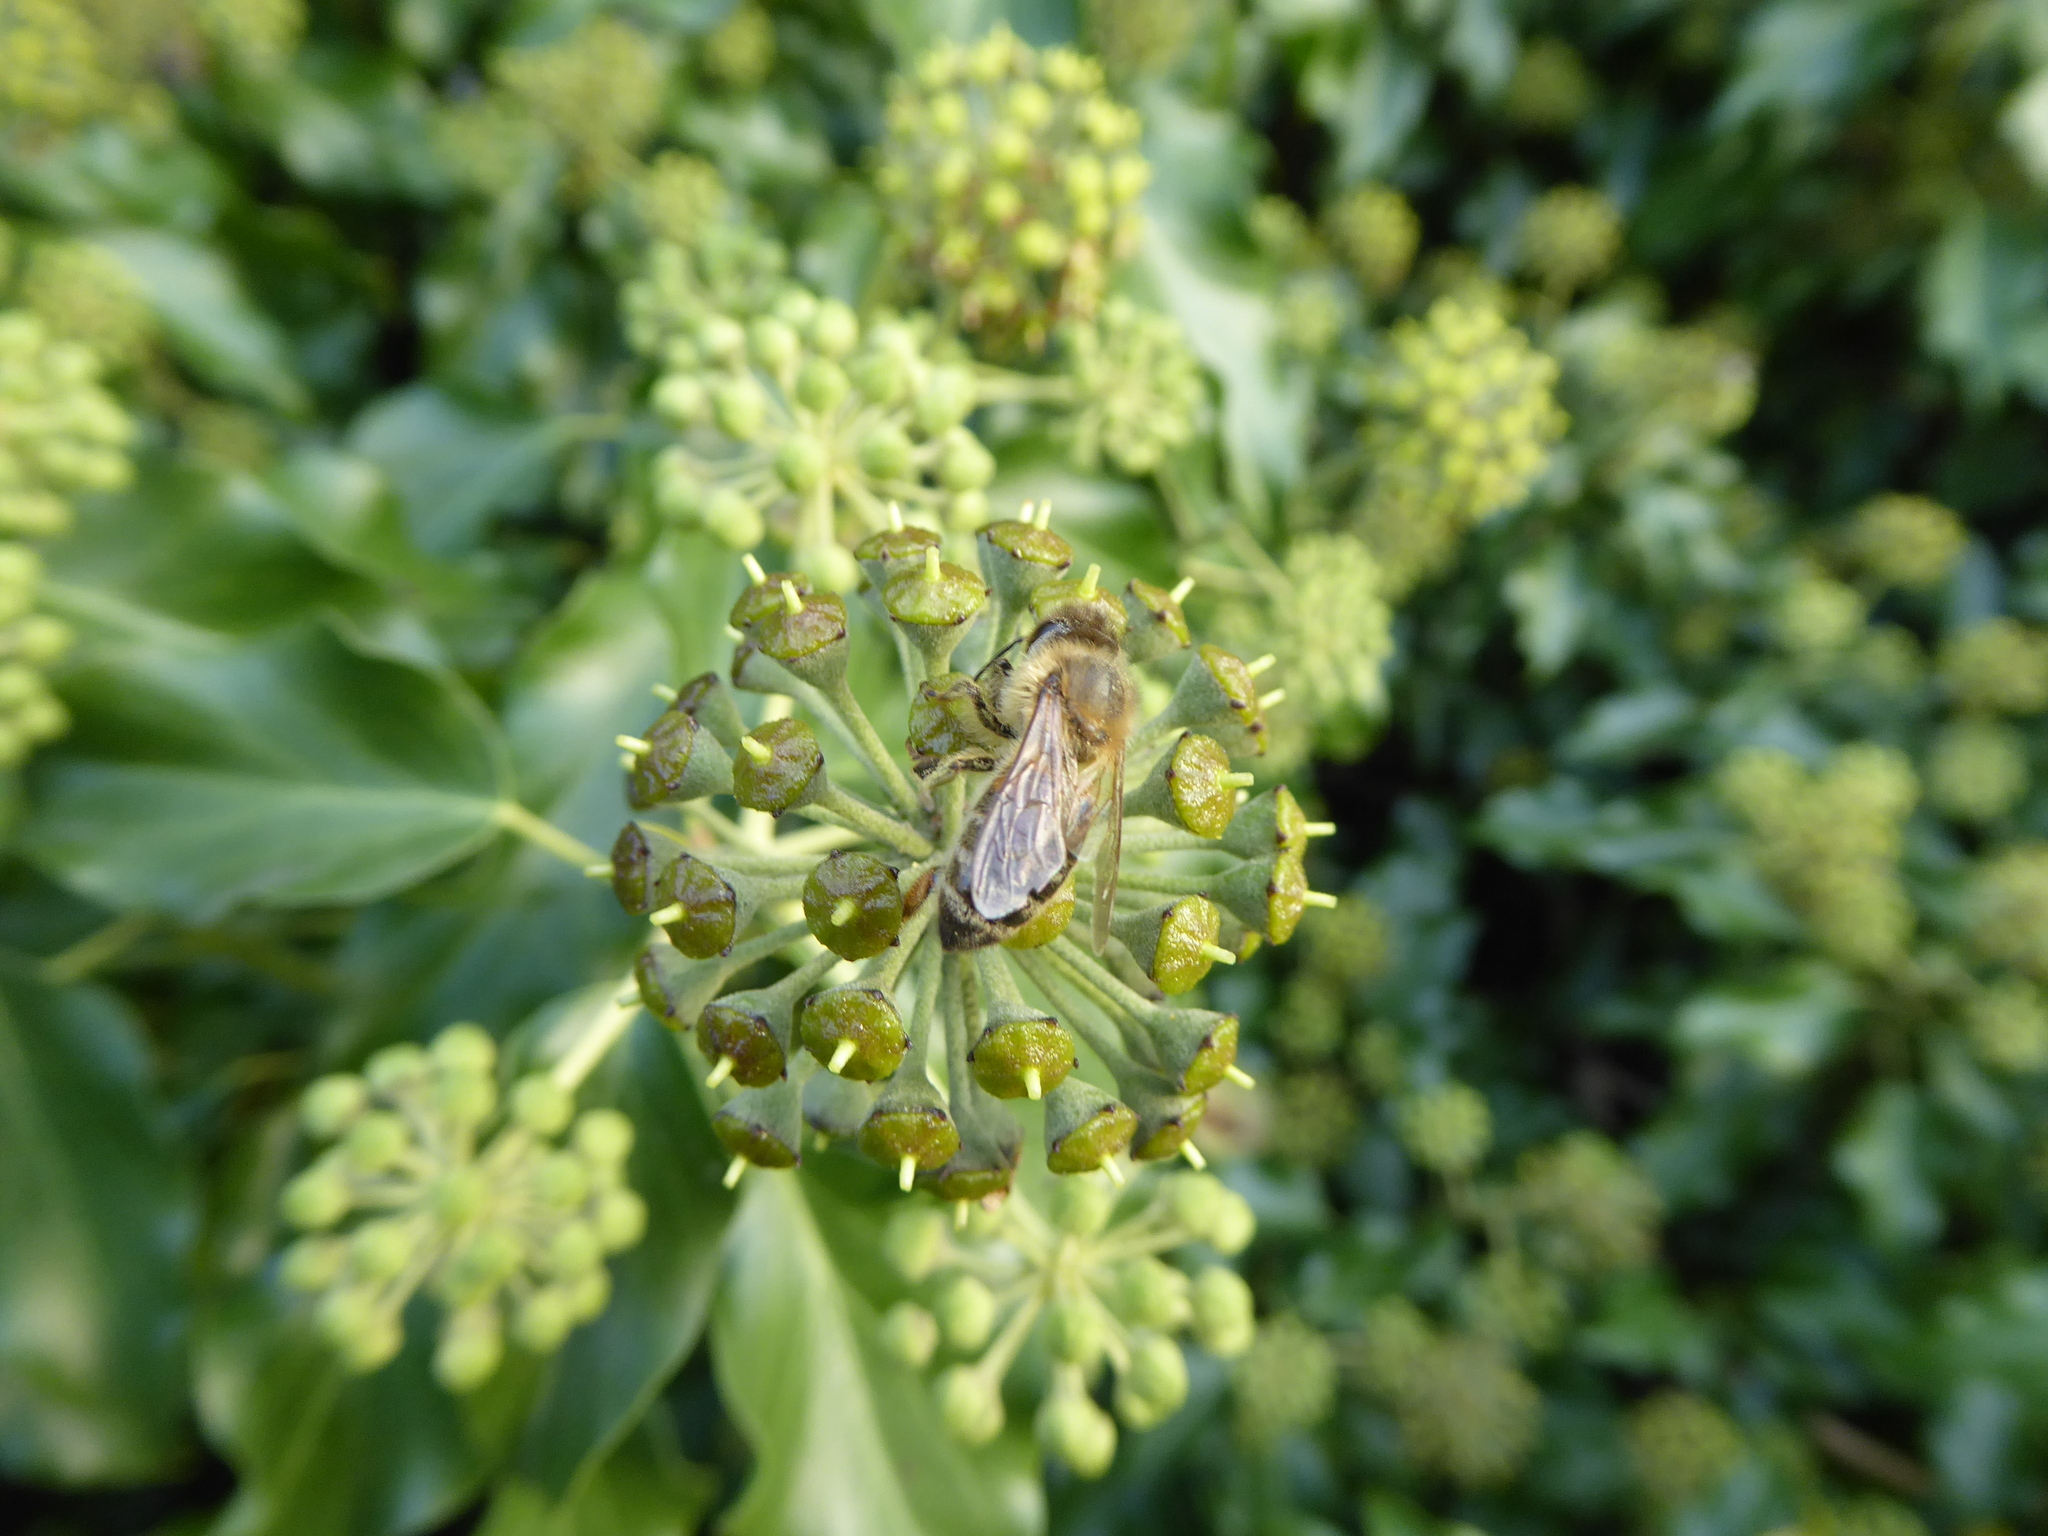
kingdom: Animalia
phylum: Arthropoda
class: Insecta
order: Hymenoptera
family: Colletidae
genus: Colletes
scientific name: Colletes hederae
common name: Ivy bee
